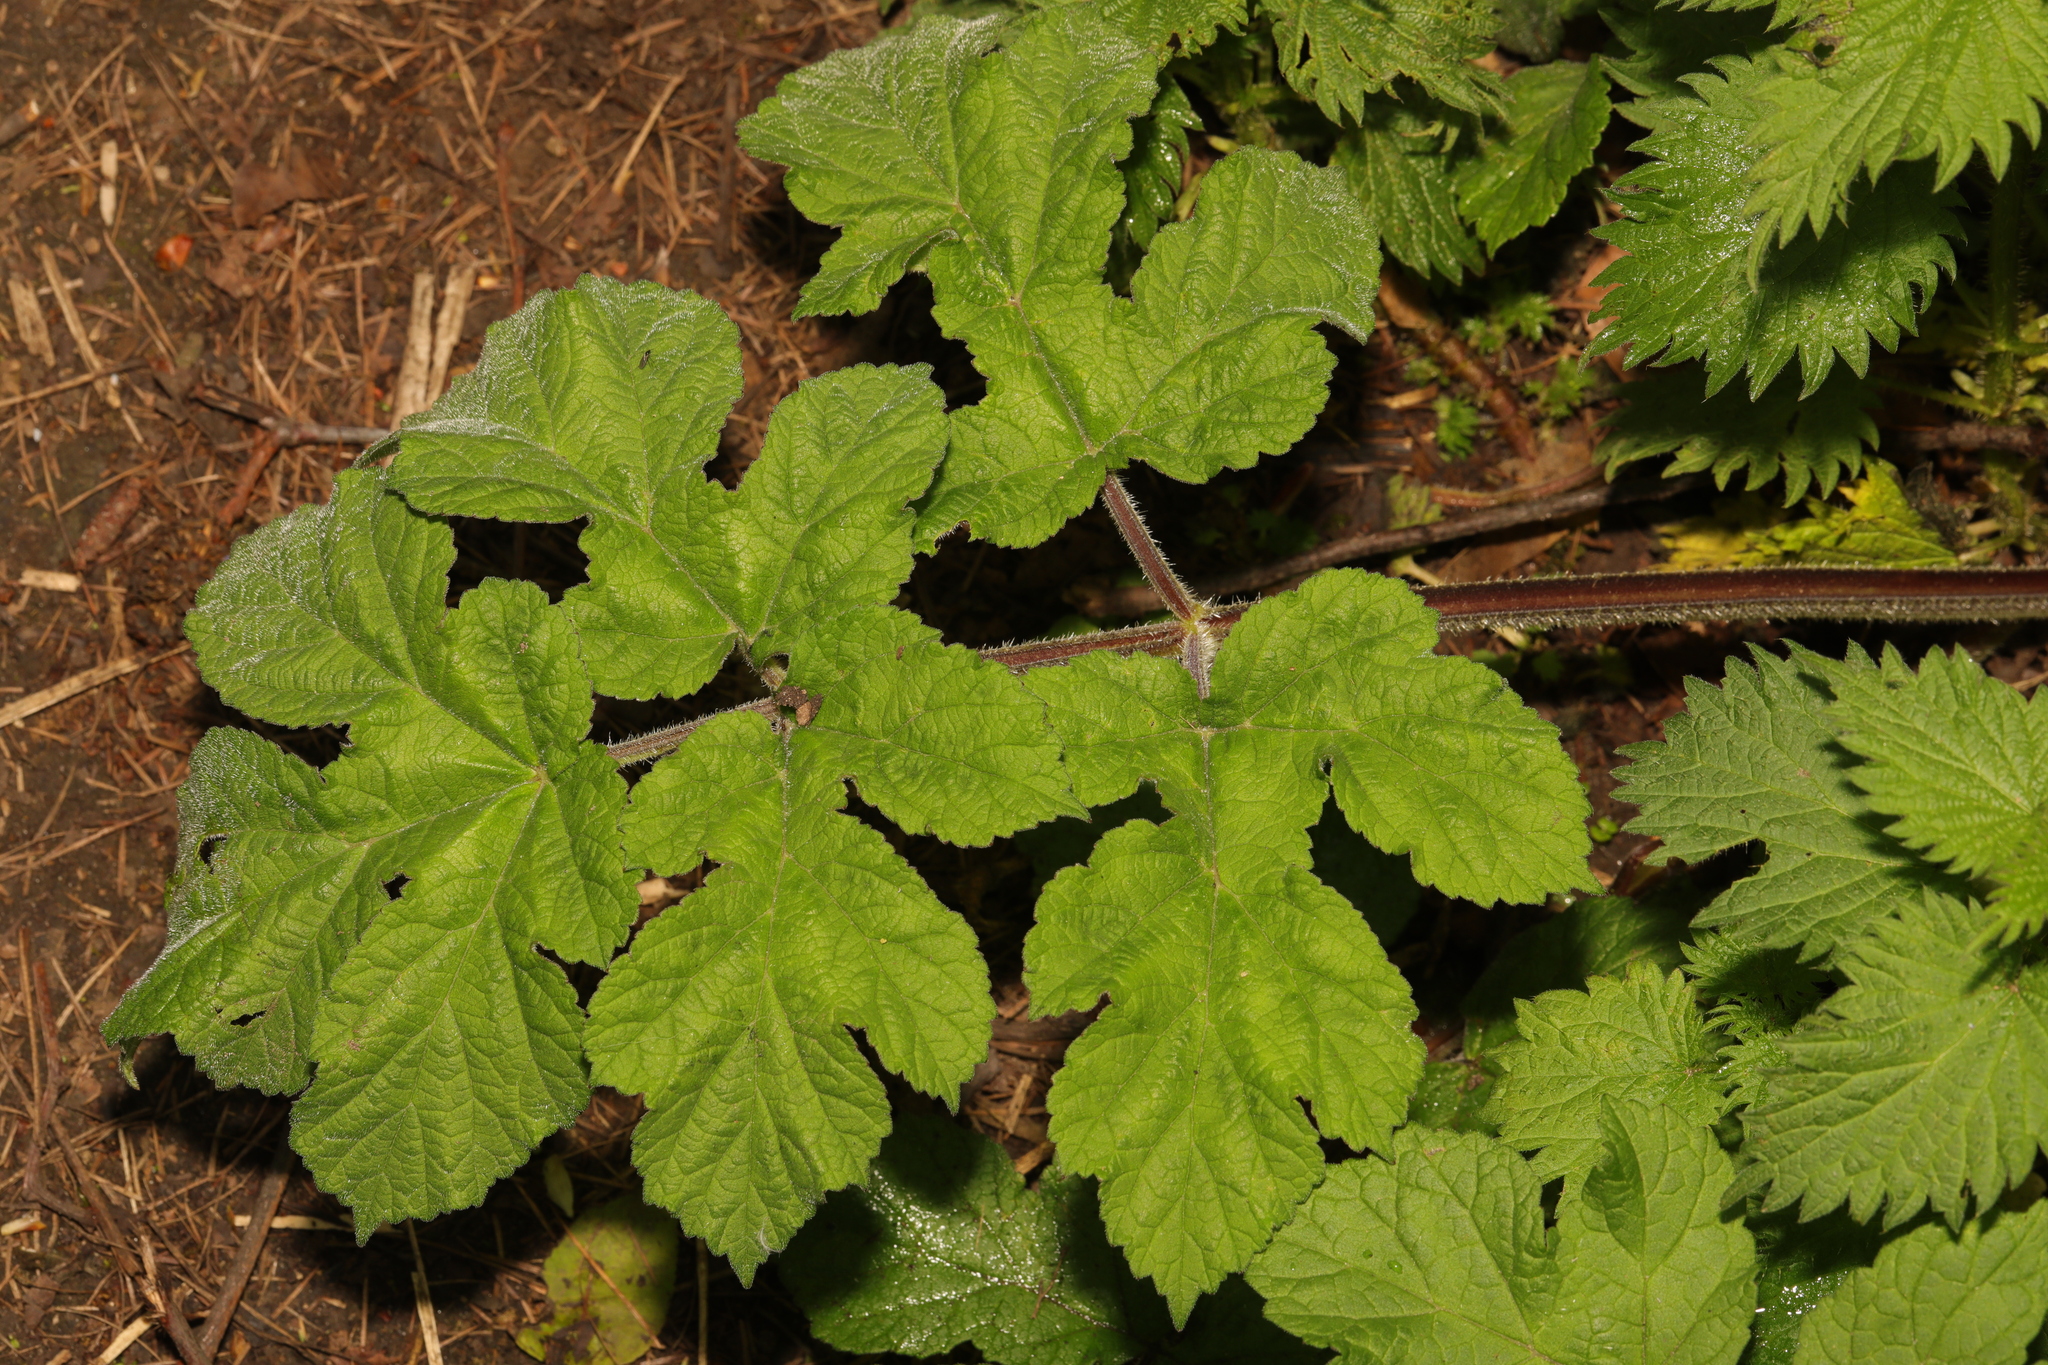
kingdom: Plantae
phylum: Tracheophyta
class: Magnoliopsida
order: Apiales
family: Apiaceae
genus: Heracleum
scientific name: Heracleum sphondylium
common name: Hogweed
